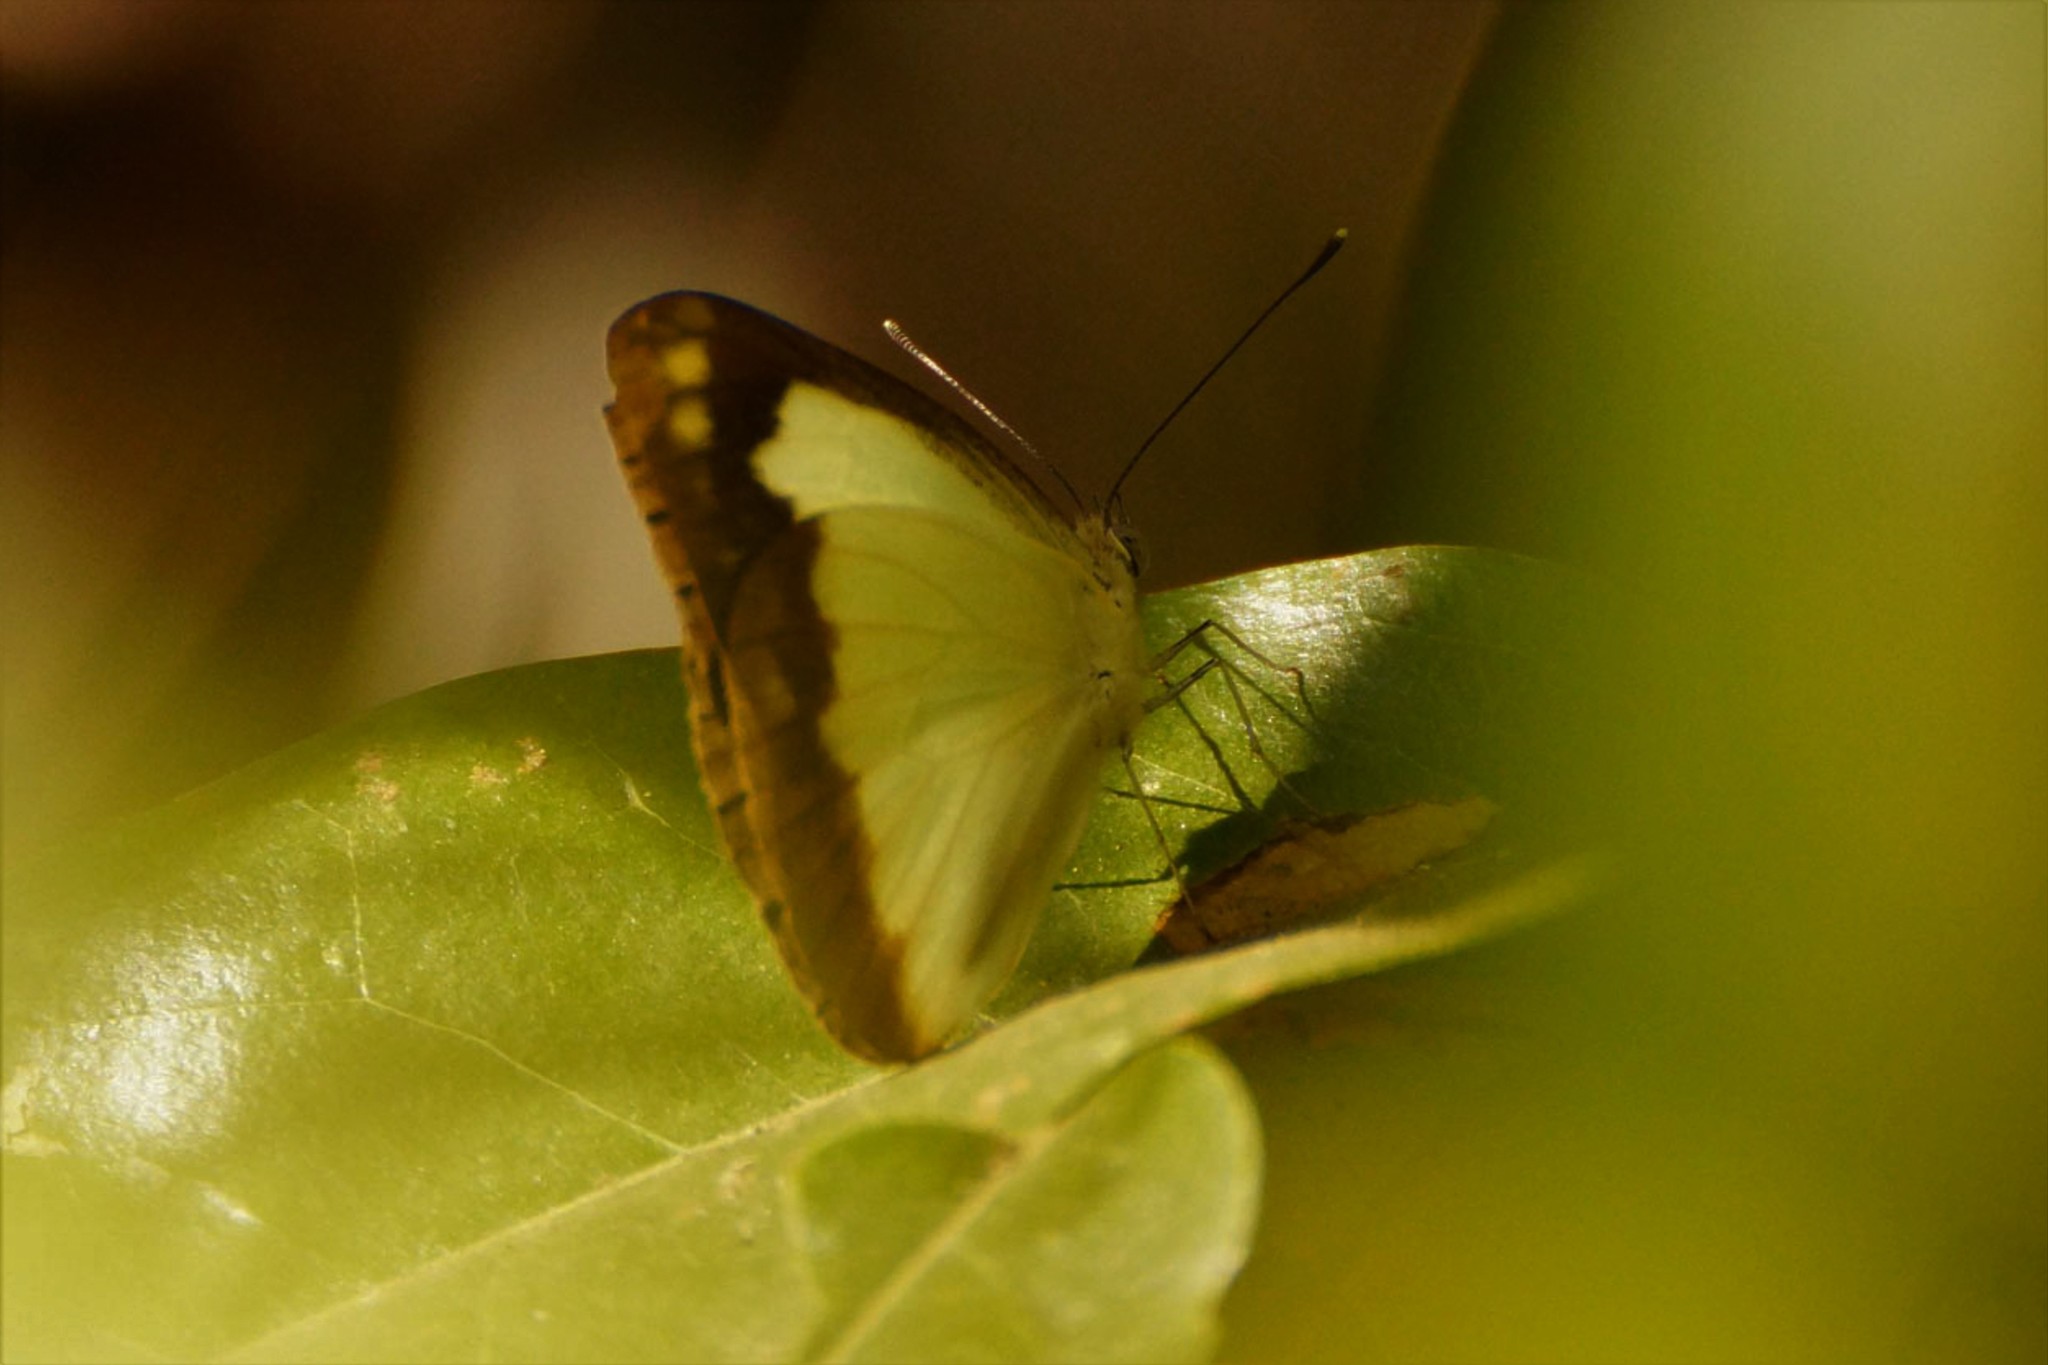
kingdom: Animalia
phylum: Arthropoda
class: Insecta
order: Lepidoptera
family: Pieridae
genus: Cepora
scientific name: Cepora perimale
